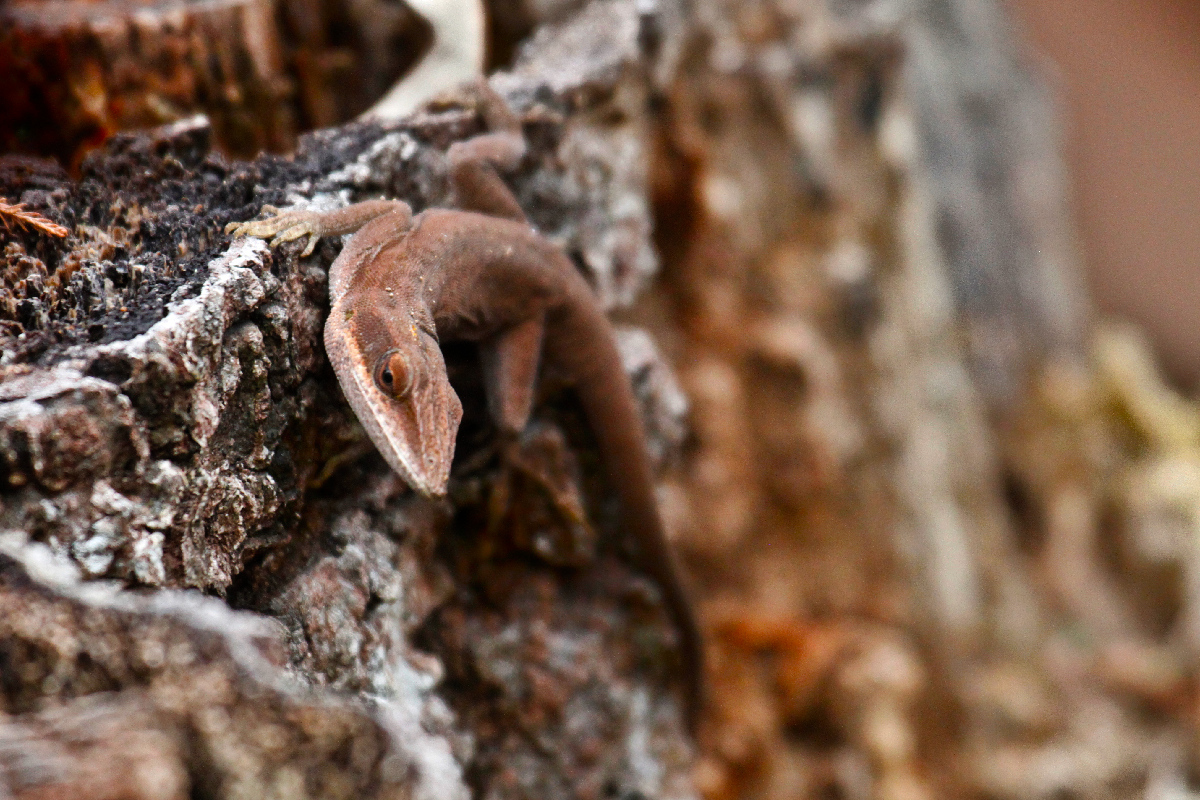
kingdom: Animalia
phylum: Chordata
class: Squamata
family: Dactyloidae
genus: Anolis
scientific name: Anolis carolinensis
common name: Green anole
